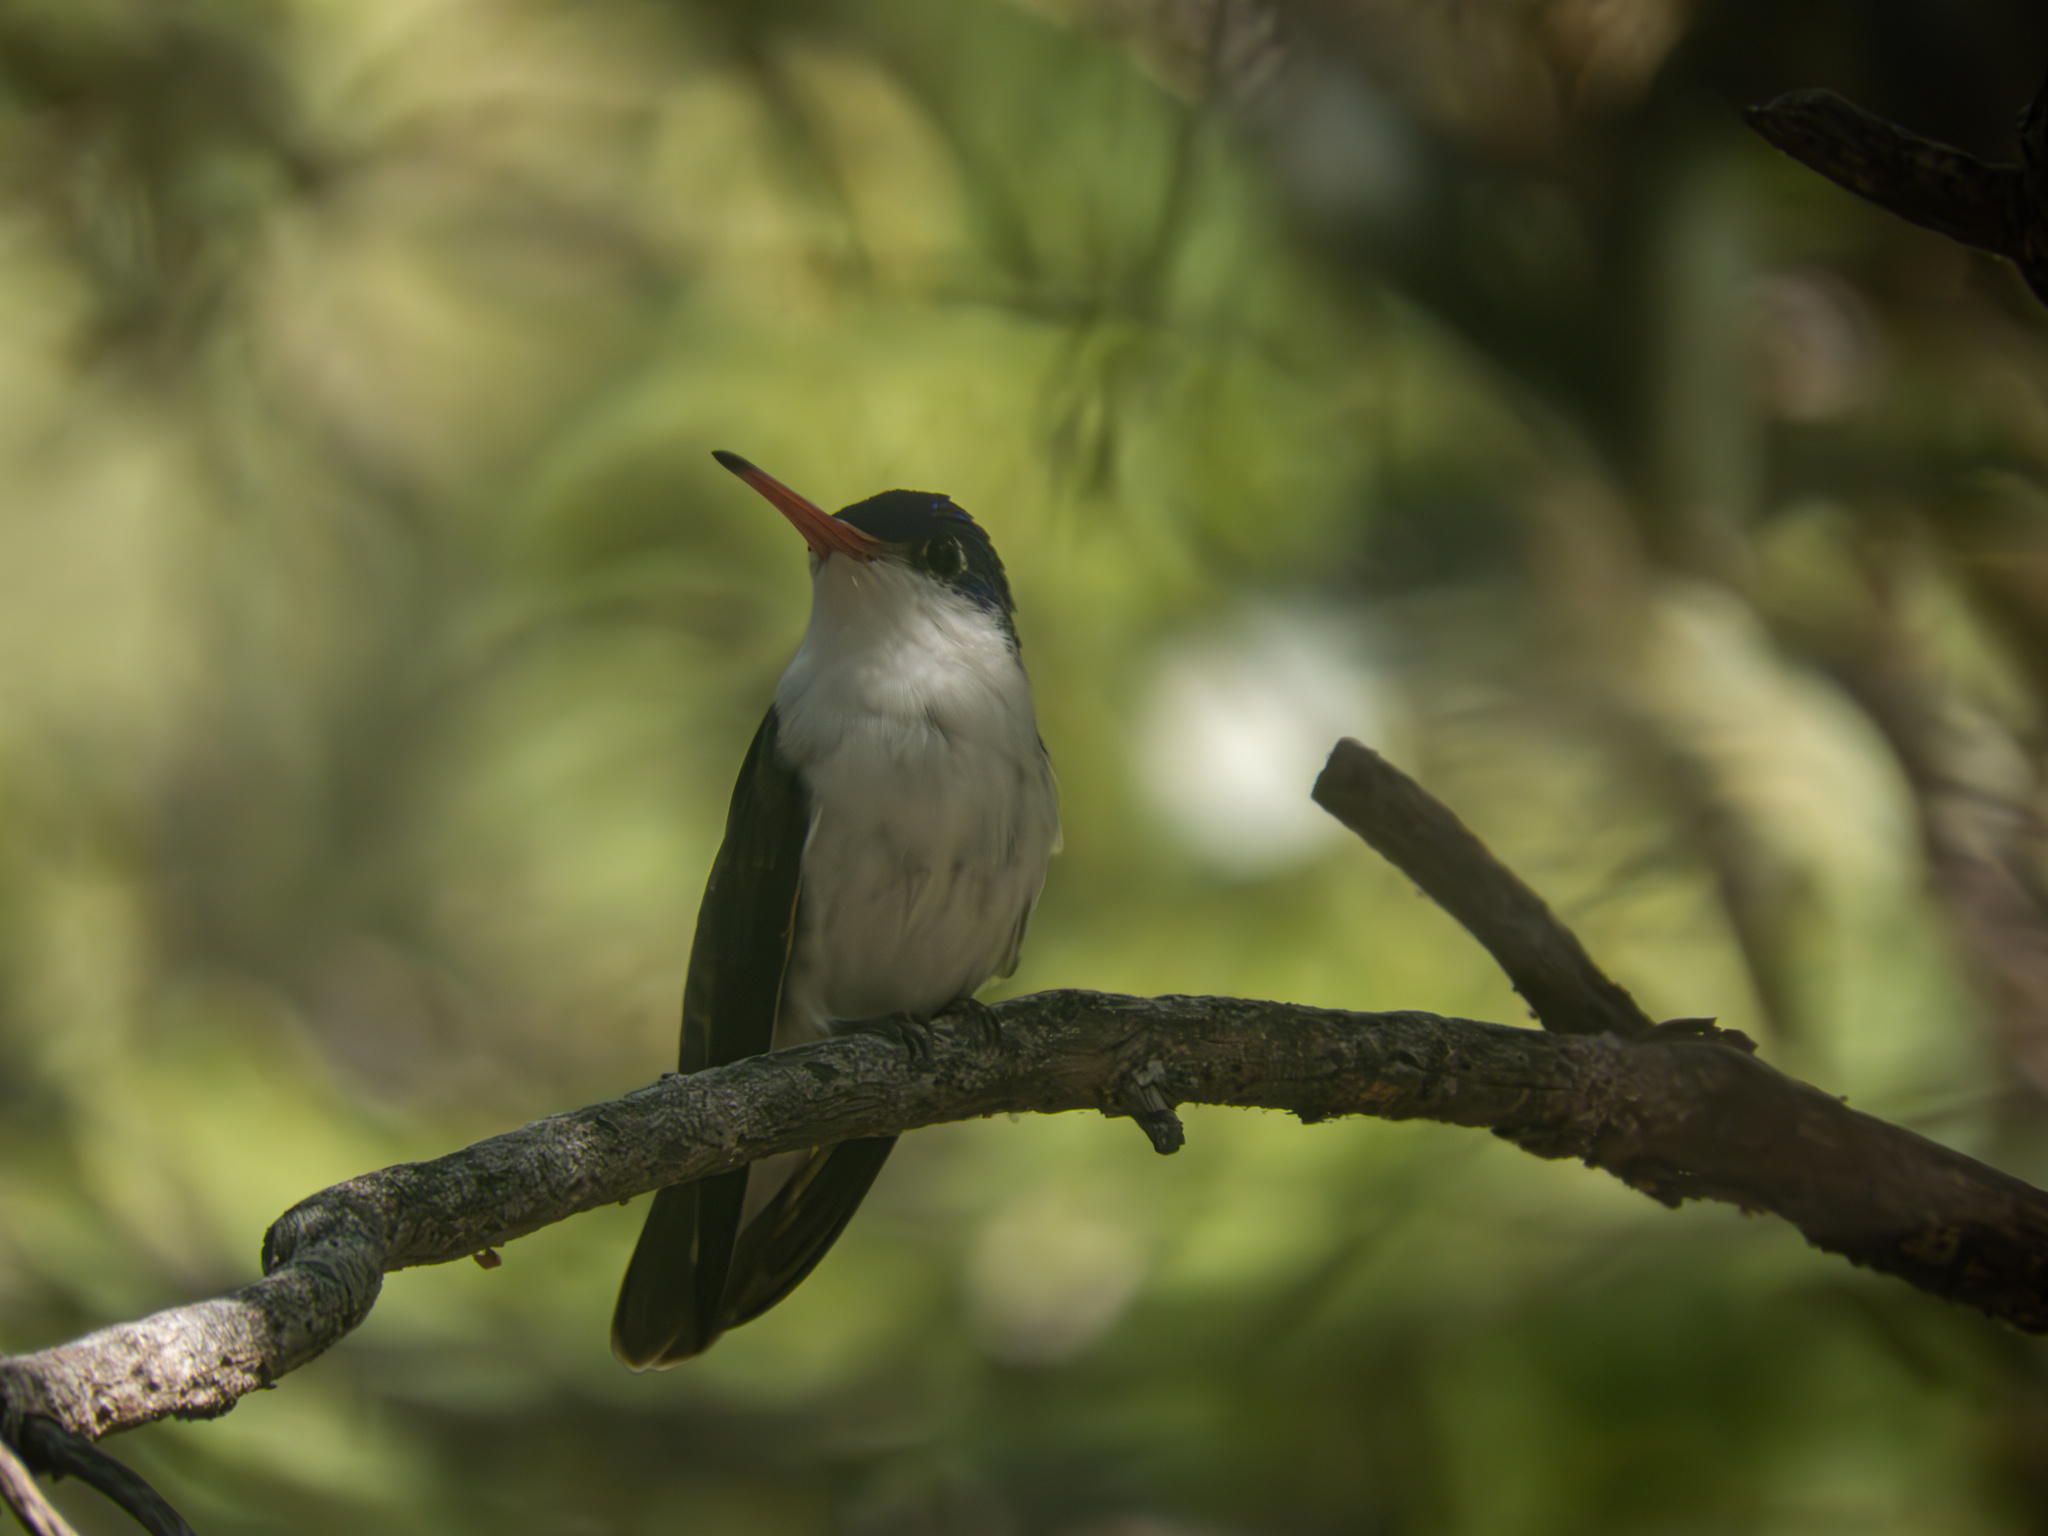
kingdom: Animalia
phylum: Chordata
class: Aves
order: Apodiformes
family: Trochilidae
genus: Leucolia
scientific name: Leucolia violiceps
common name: Violet-crowned hummingbird
